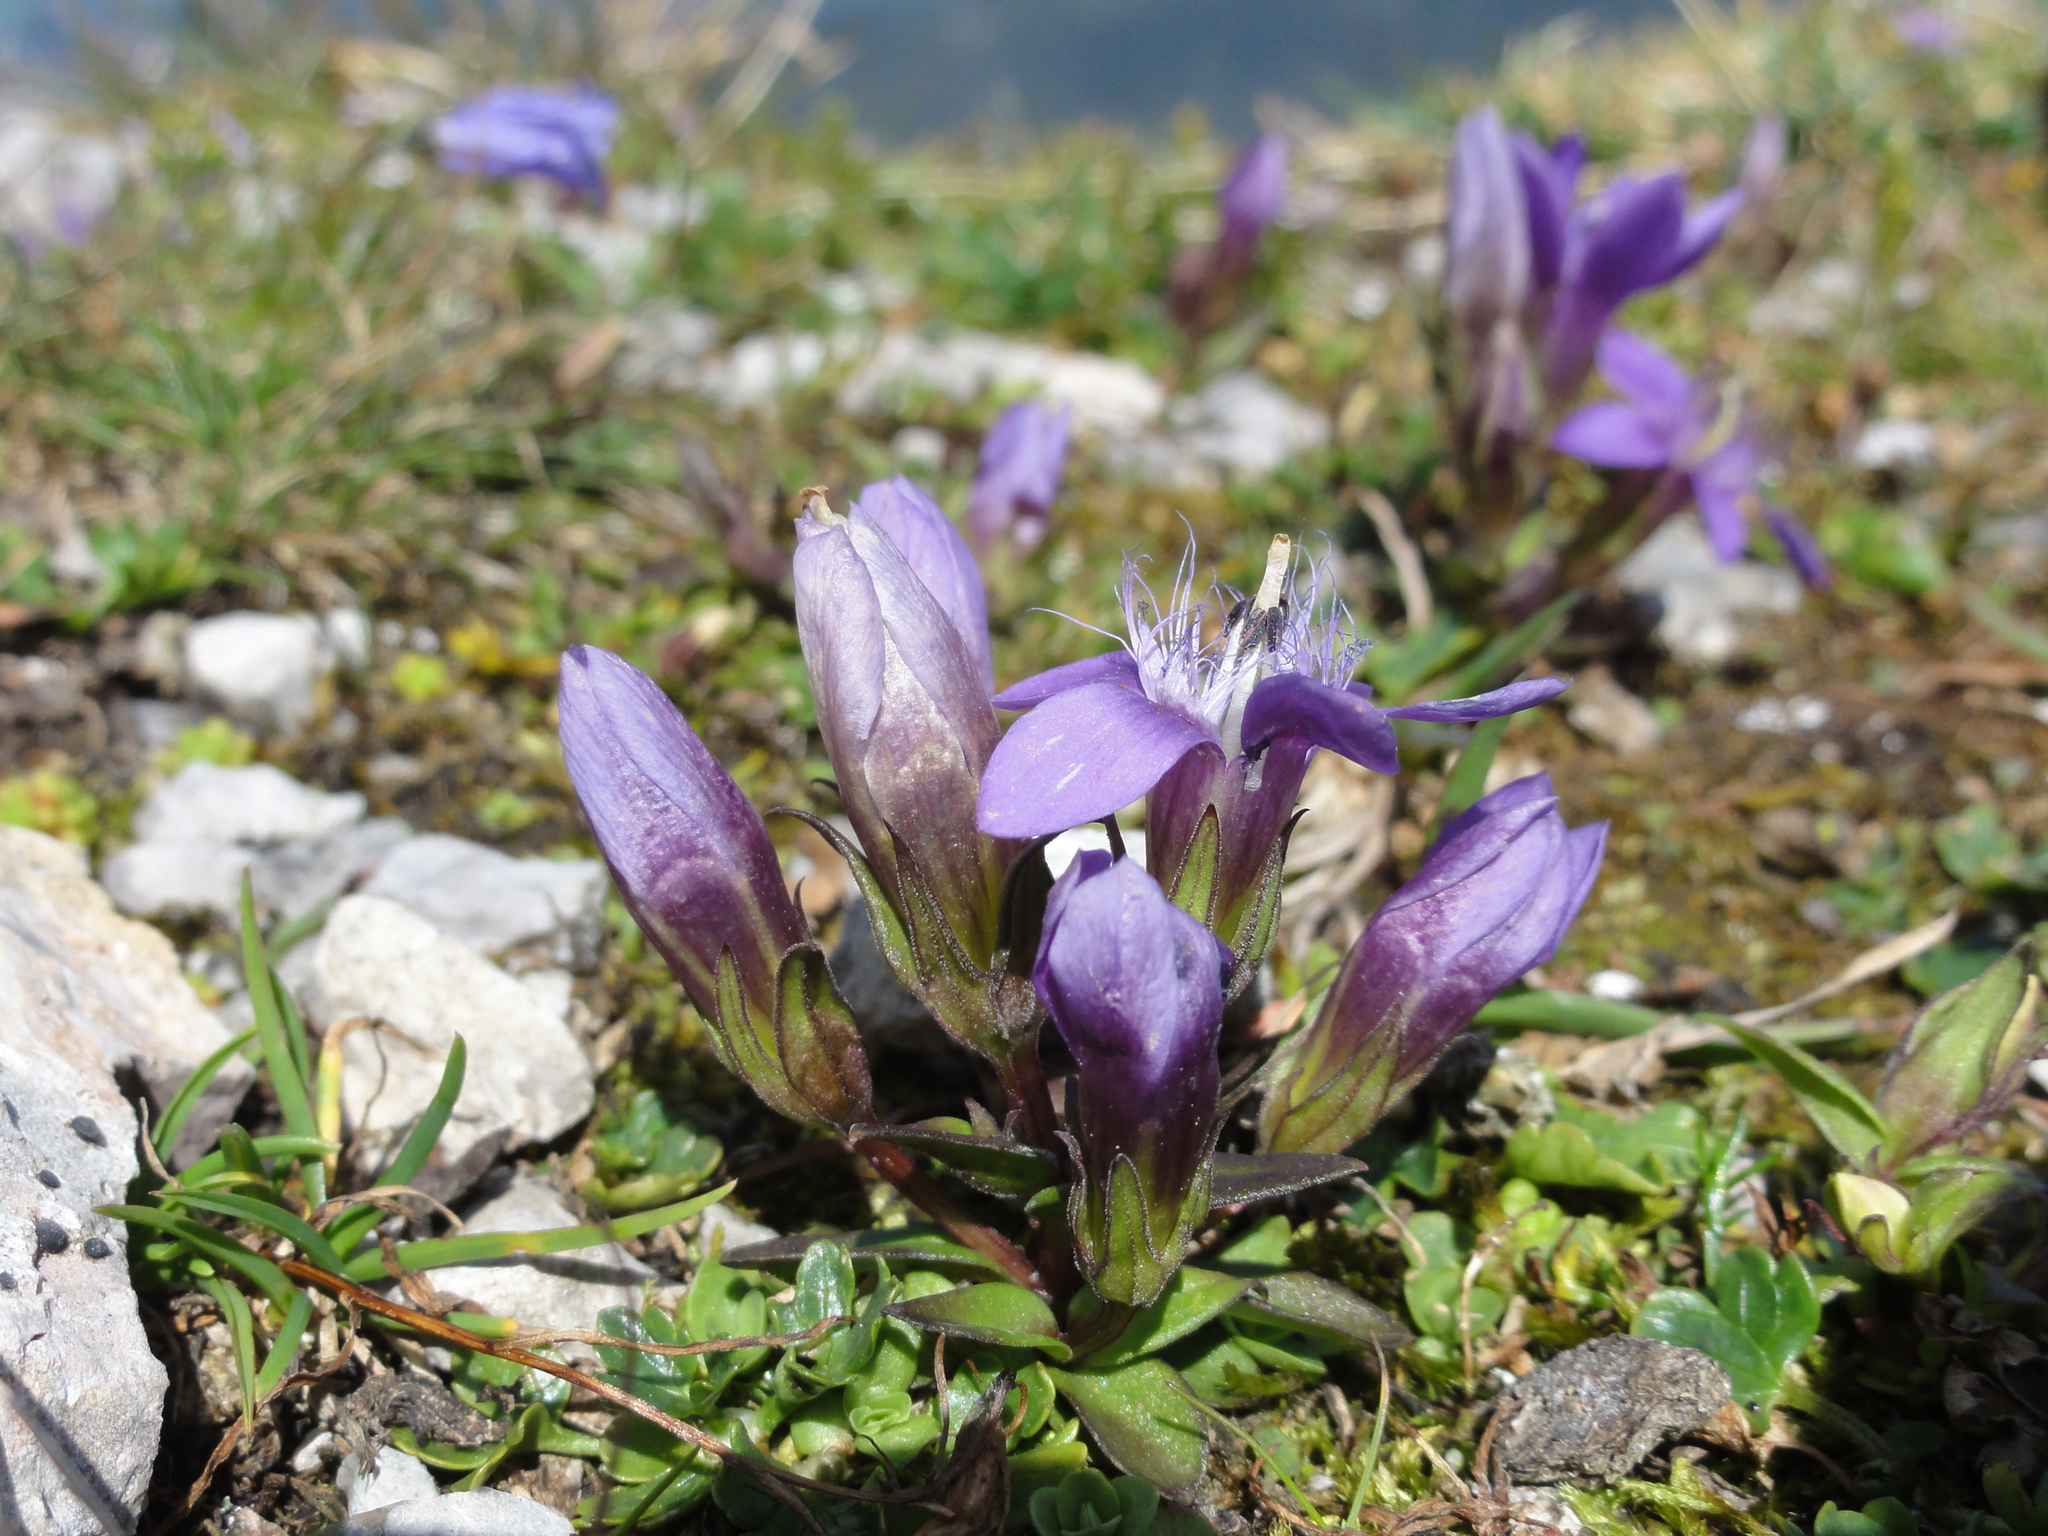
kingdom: Plantae
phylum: Tracheophyta
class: Magnoliopsida
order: Gentianales
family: Gentianaceae
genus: Gentianella
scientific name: Gentianella obtusifolia
